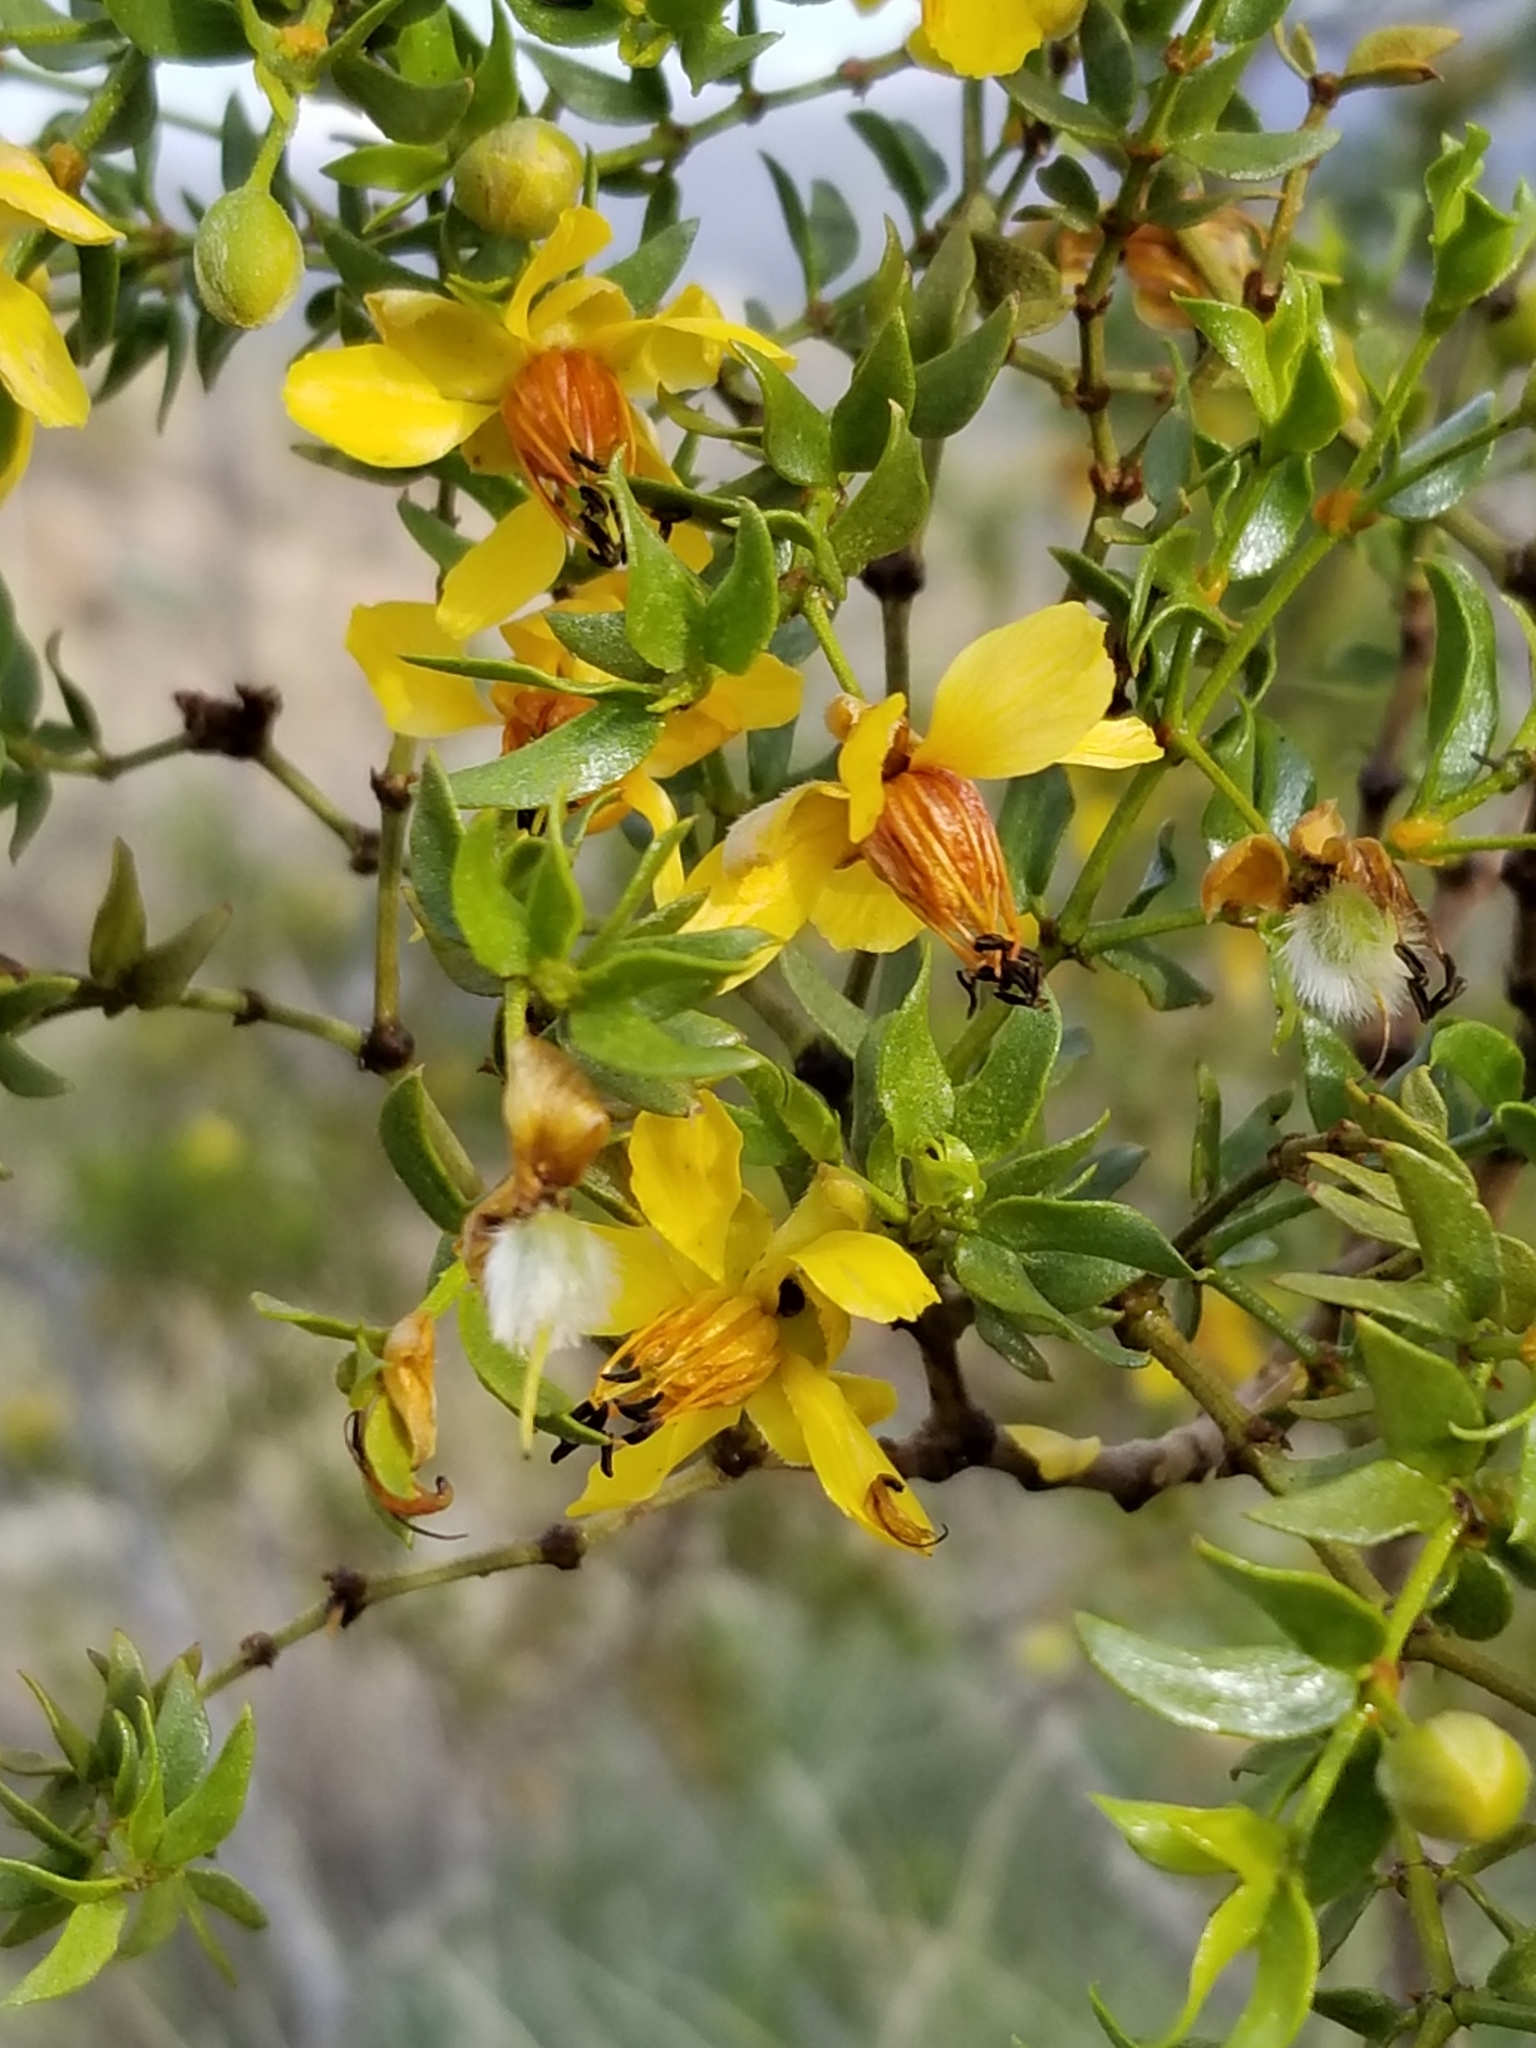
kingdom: Plantae
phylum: Tracheophyta
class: Magnoliopsida
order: Zygophyllales
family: Zygophyllaceae
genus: Larrea
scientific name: Larrea tridentata
